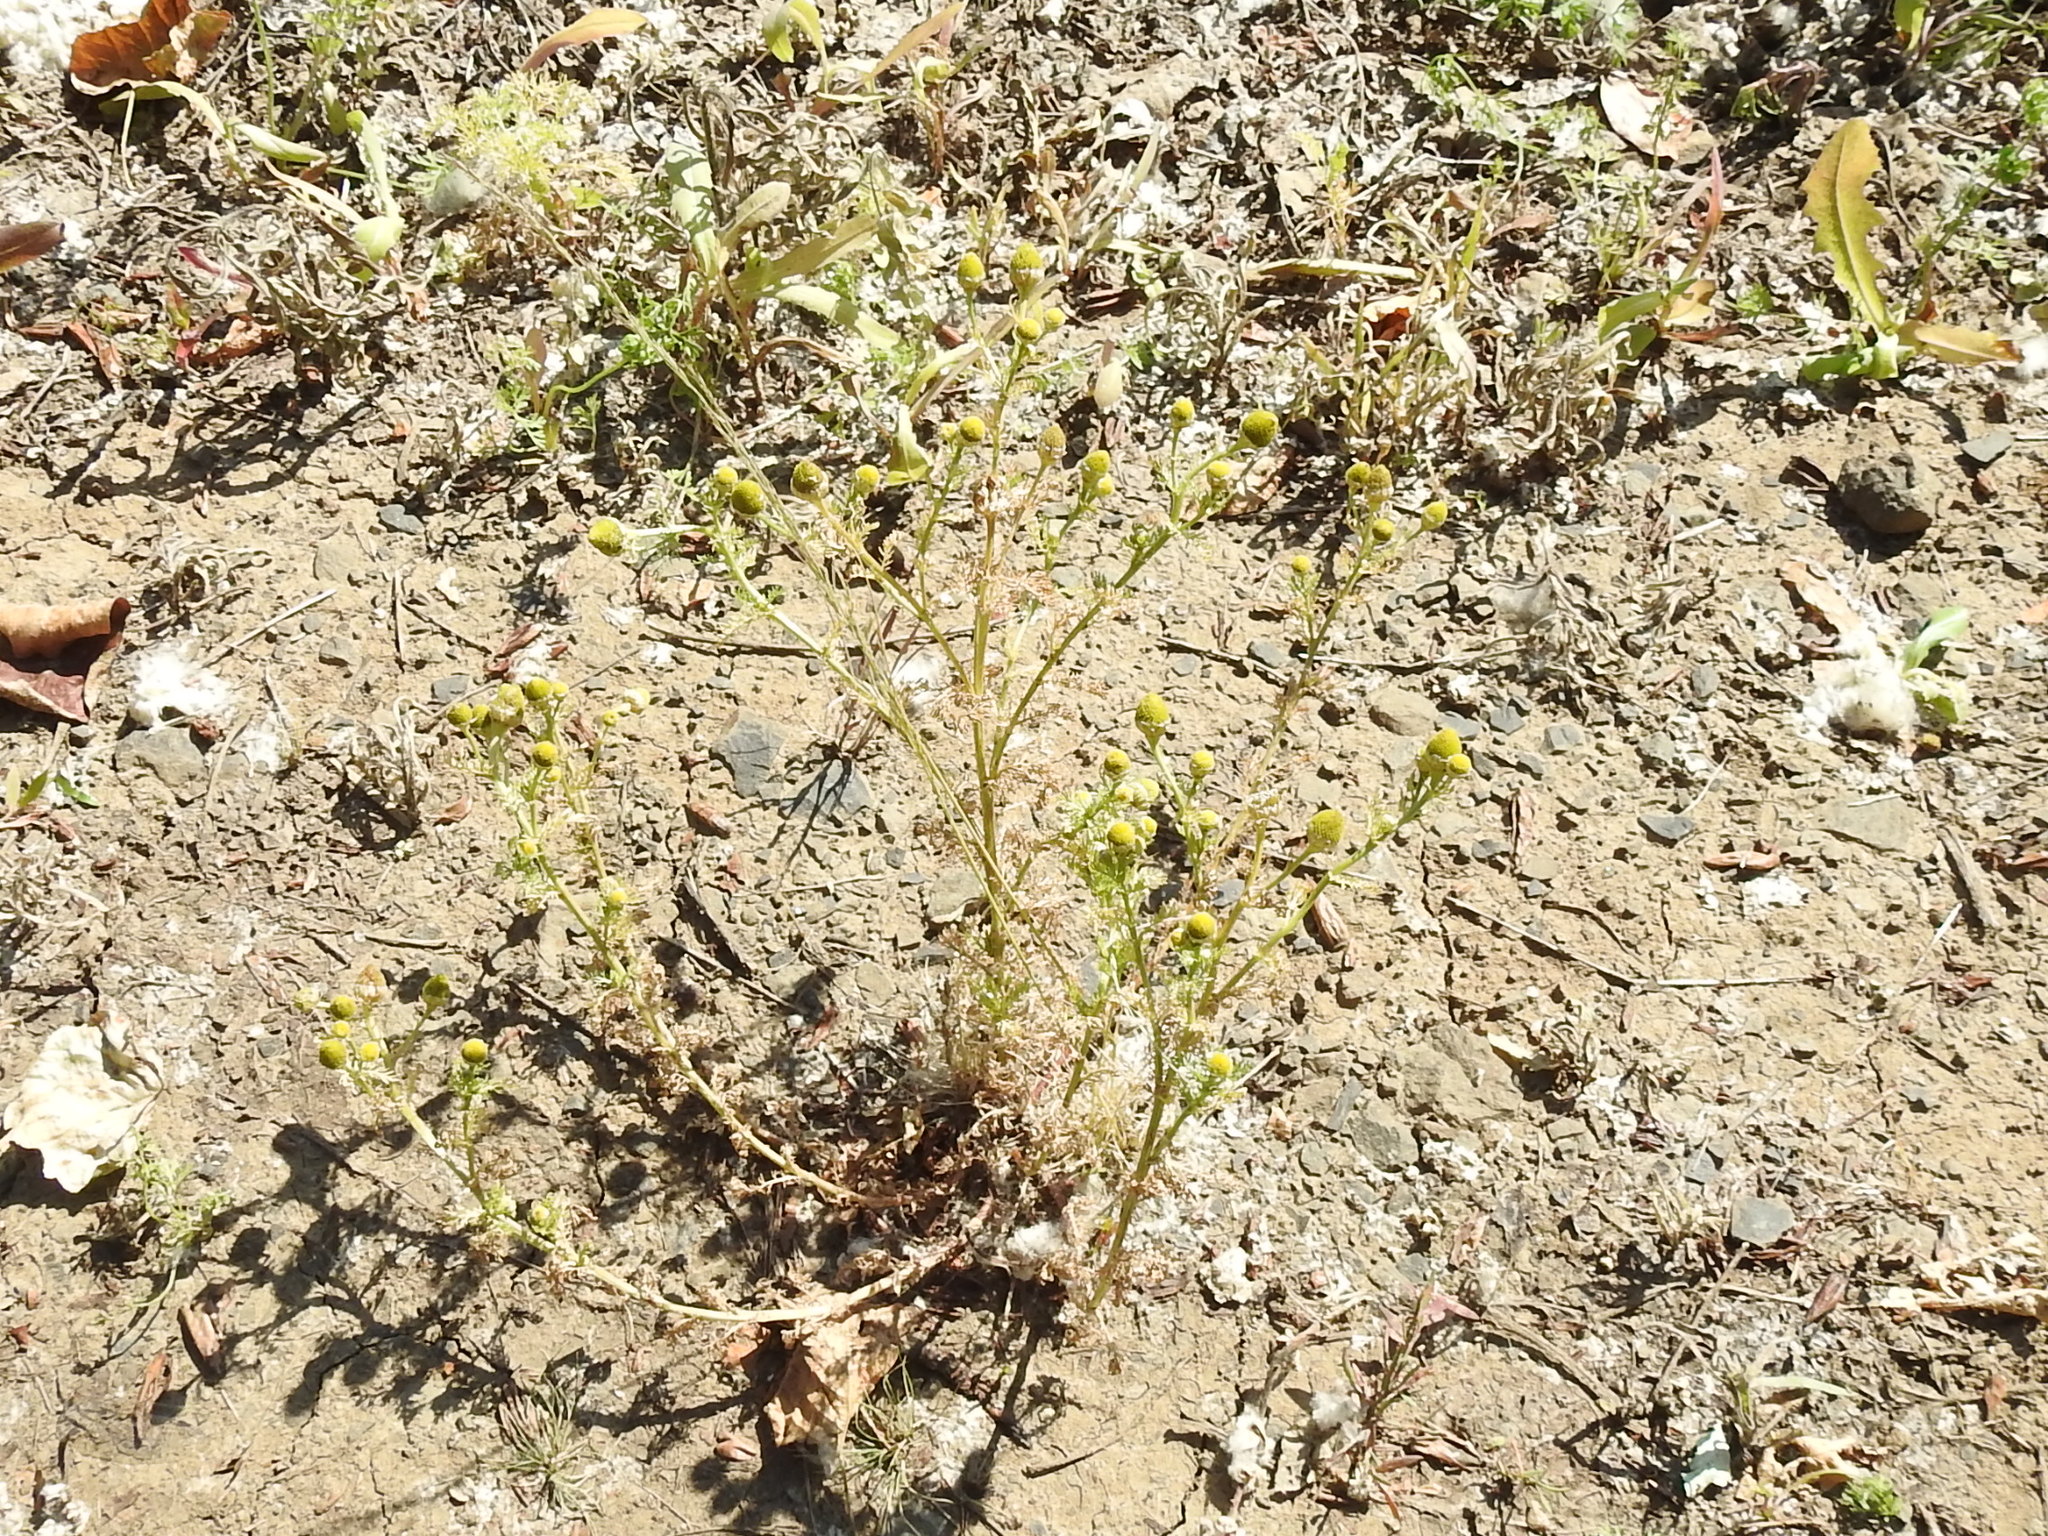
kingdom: Plantae
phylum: Tracheophyta
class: Magnoliopsida
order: Asterales
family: Asteraceae
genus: Matricaria
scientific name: Matricaria discoidea
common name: Disc mayweed
